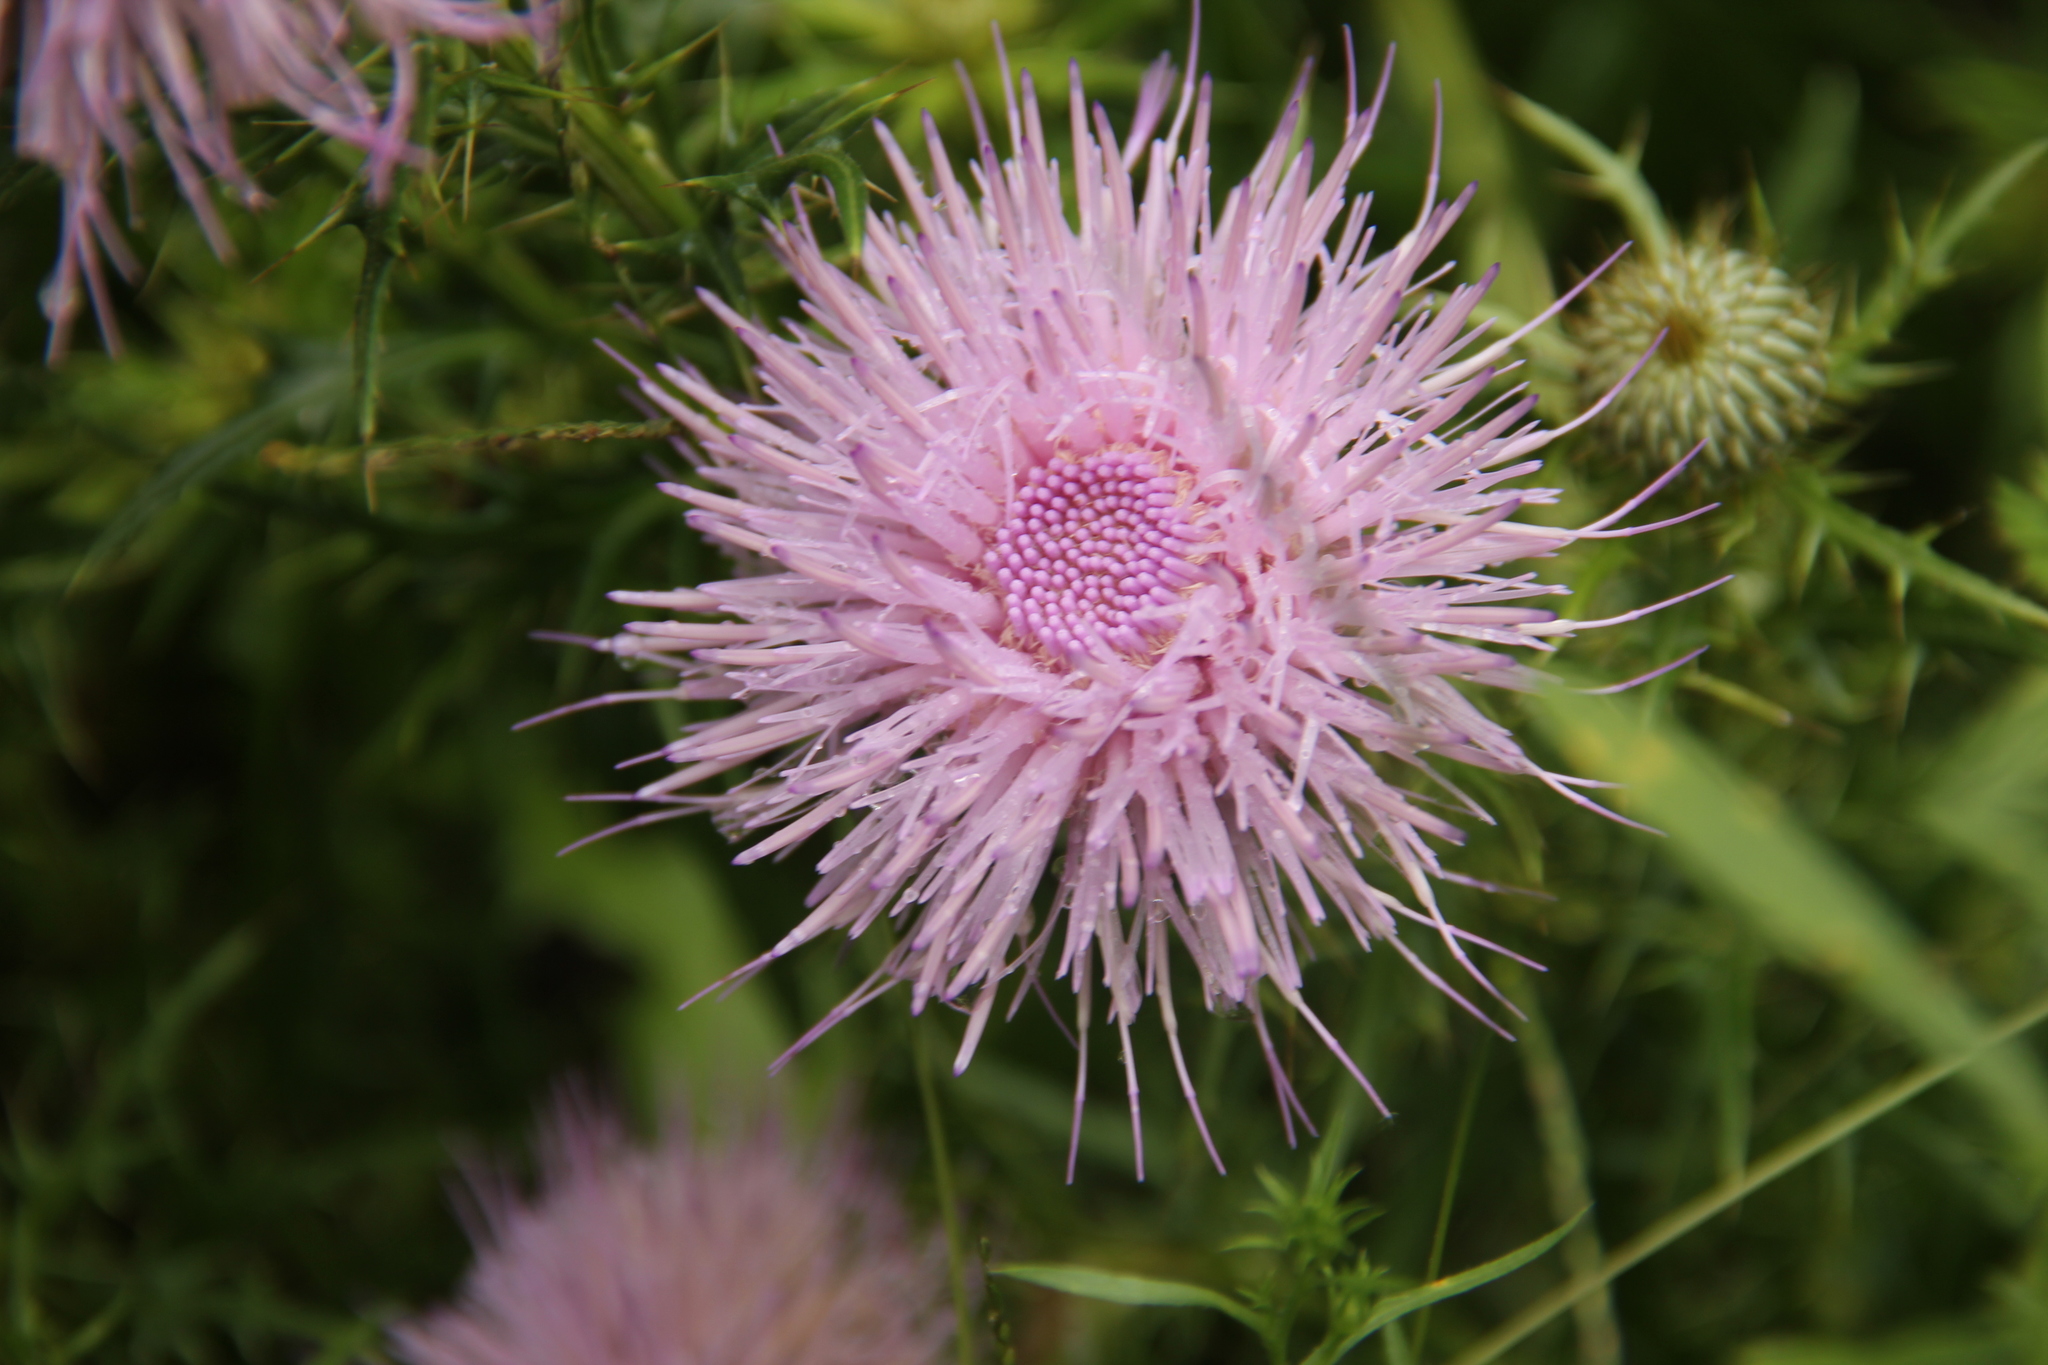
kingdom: Plantae
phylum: Tracheophyta
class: Magnoliopsida
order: Asterales
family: Asteraceae
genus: Cirsium
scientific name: Cirsium discolor
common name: Field thistle
